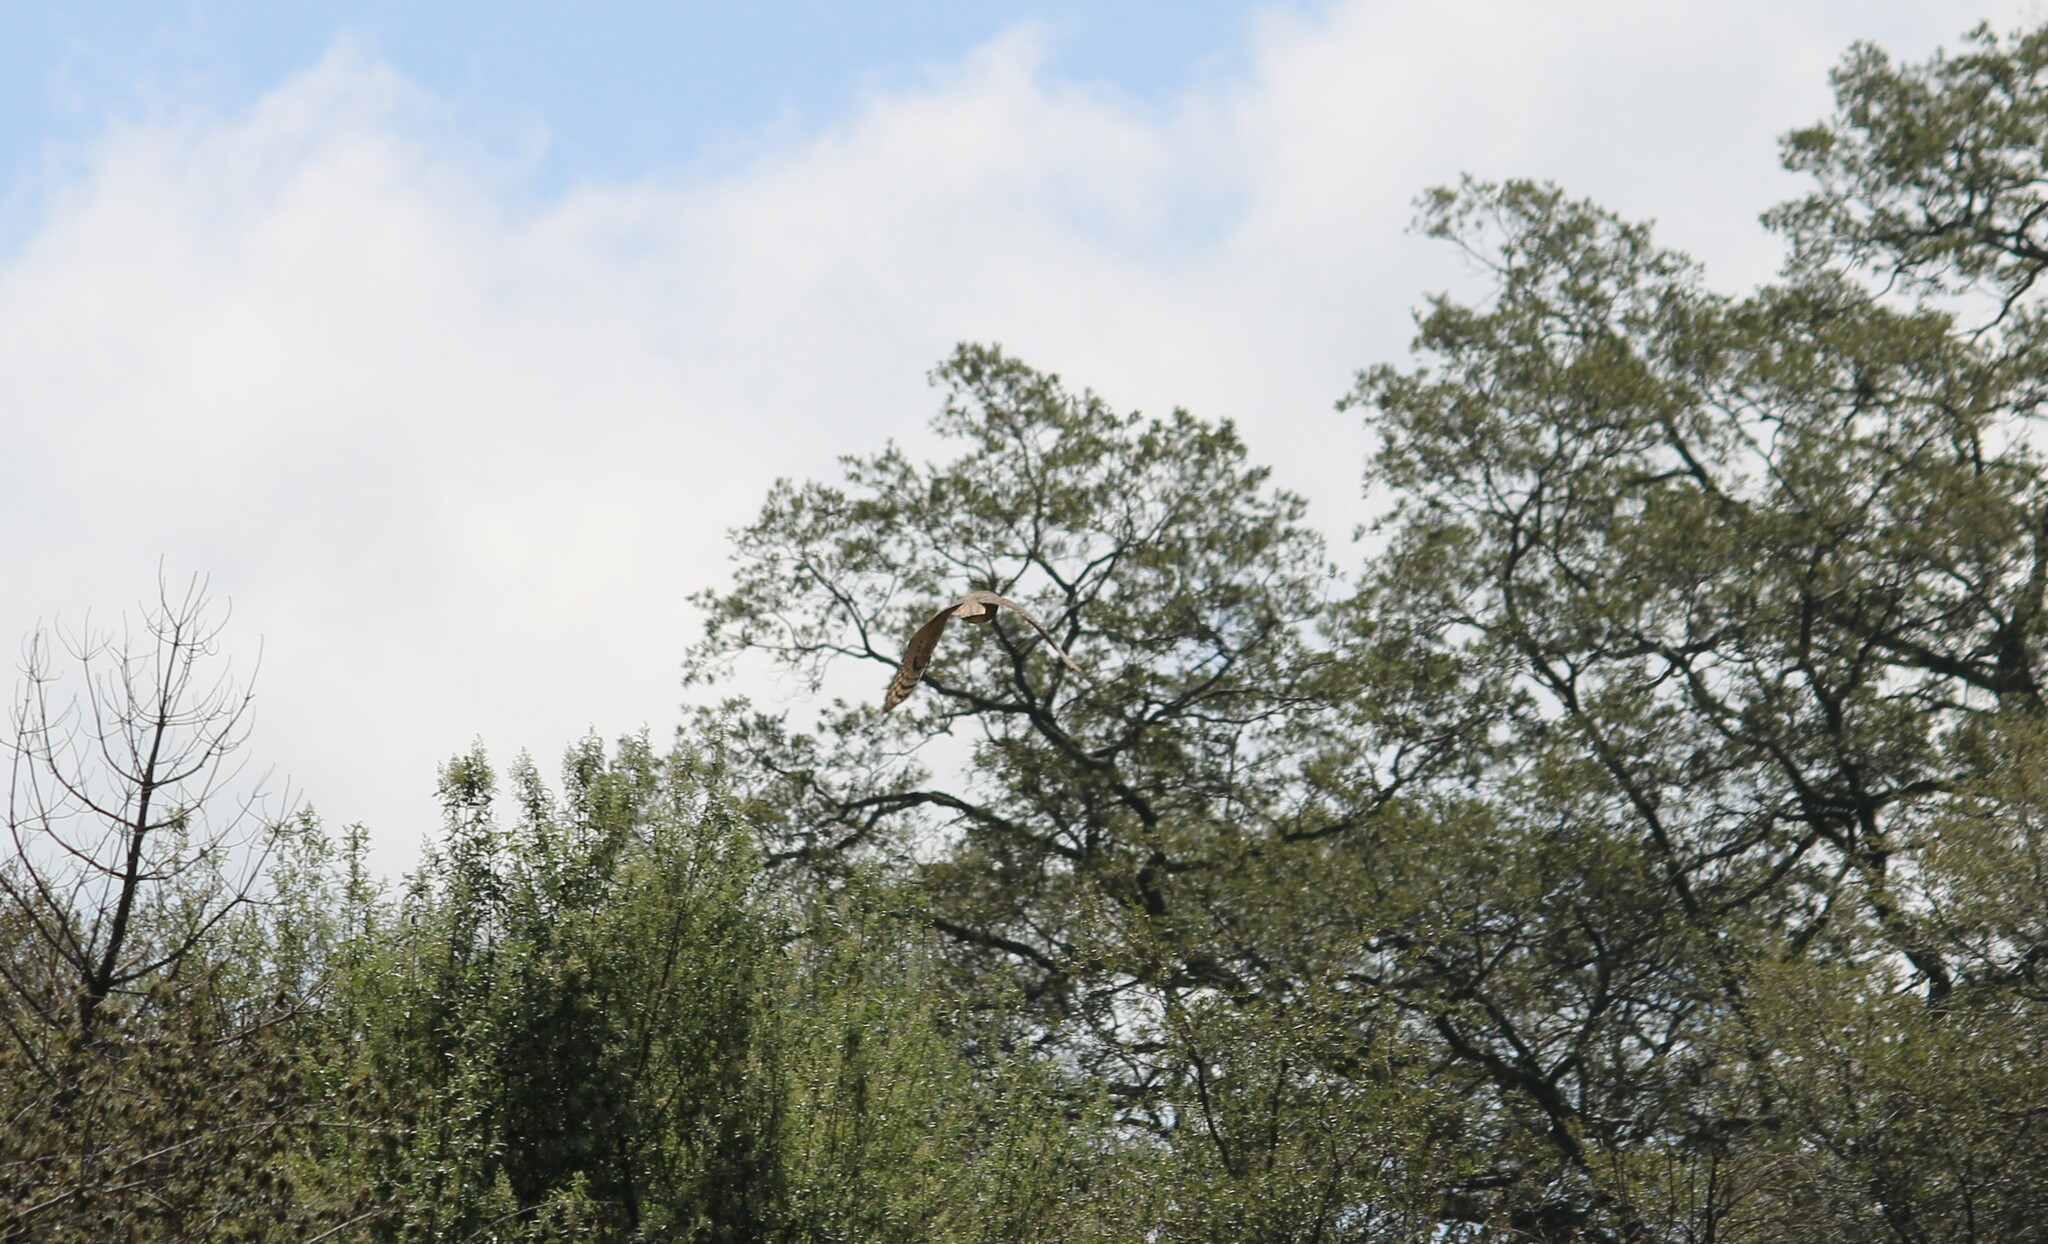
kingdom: Animalia
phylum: Chordata
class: Aves
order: Strigiformes
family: Strigidae
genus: Bubo
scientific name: Bubo virginianus
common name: Great horned owl
